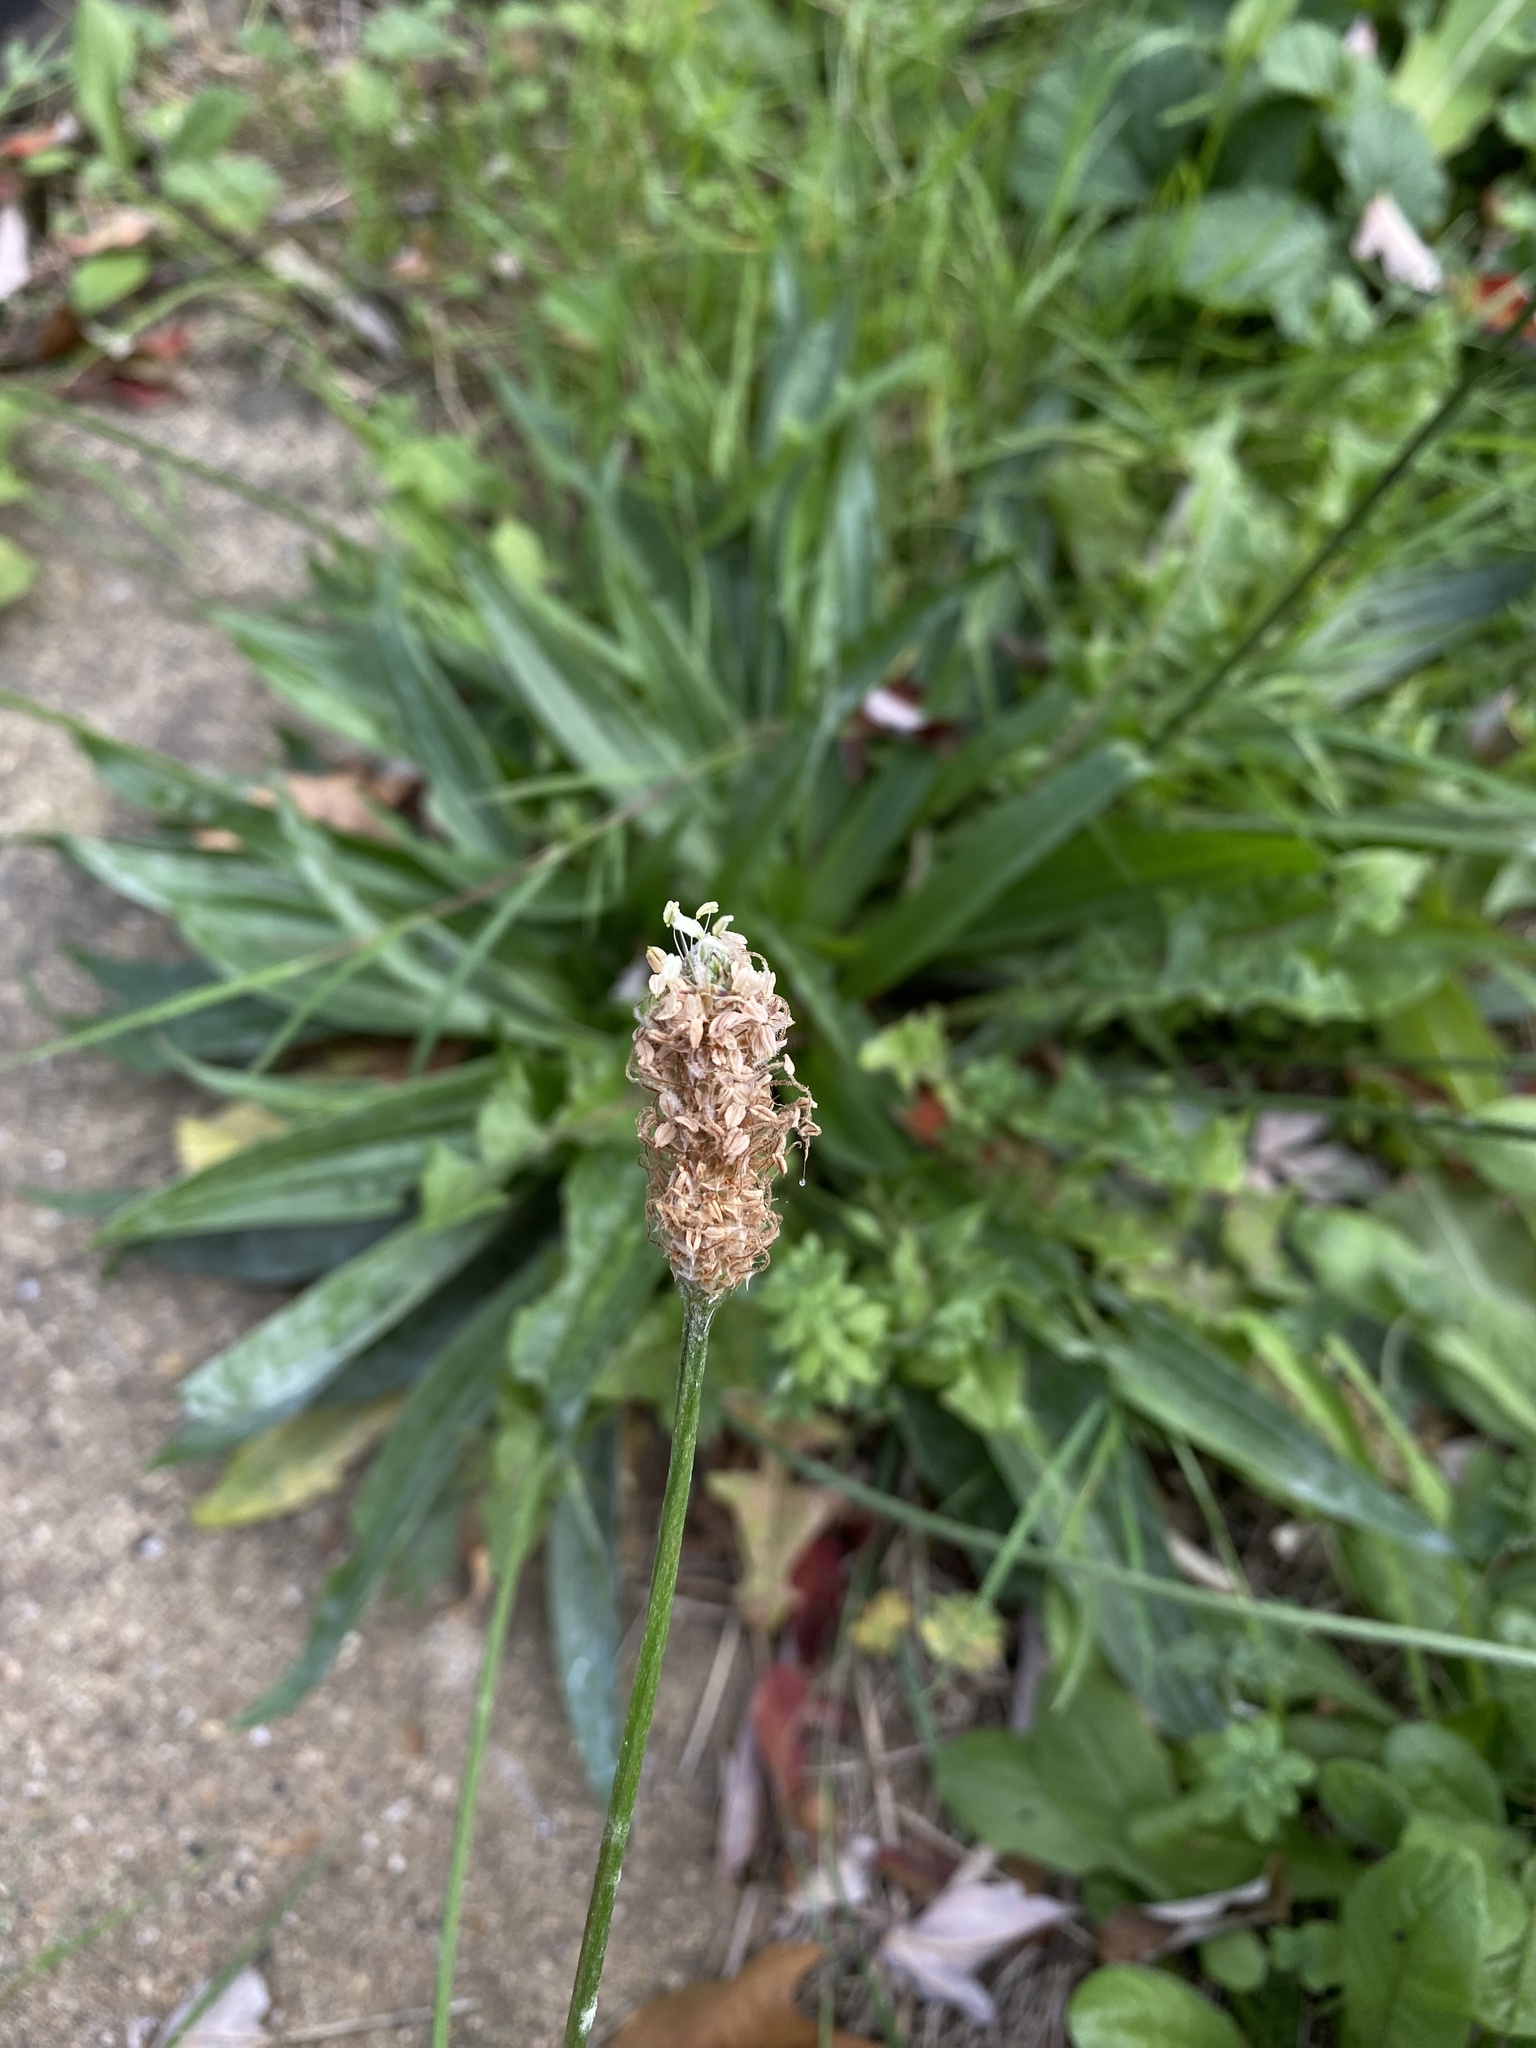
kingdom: Plantae
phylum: Tracheophyta
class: Magnoliopsida
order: Lamiales
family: Plantaginaceae
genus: Plantago
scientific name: Plantago lanceolata
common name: Ribwort plantain
